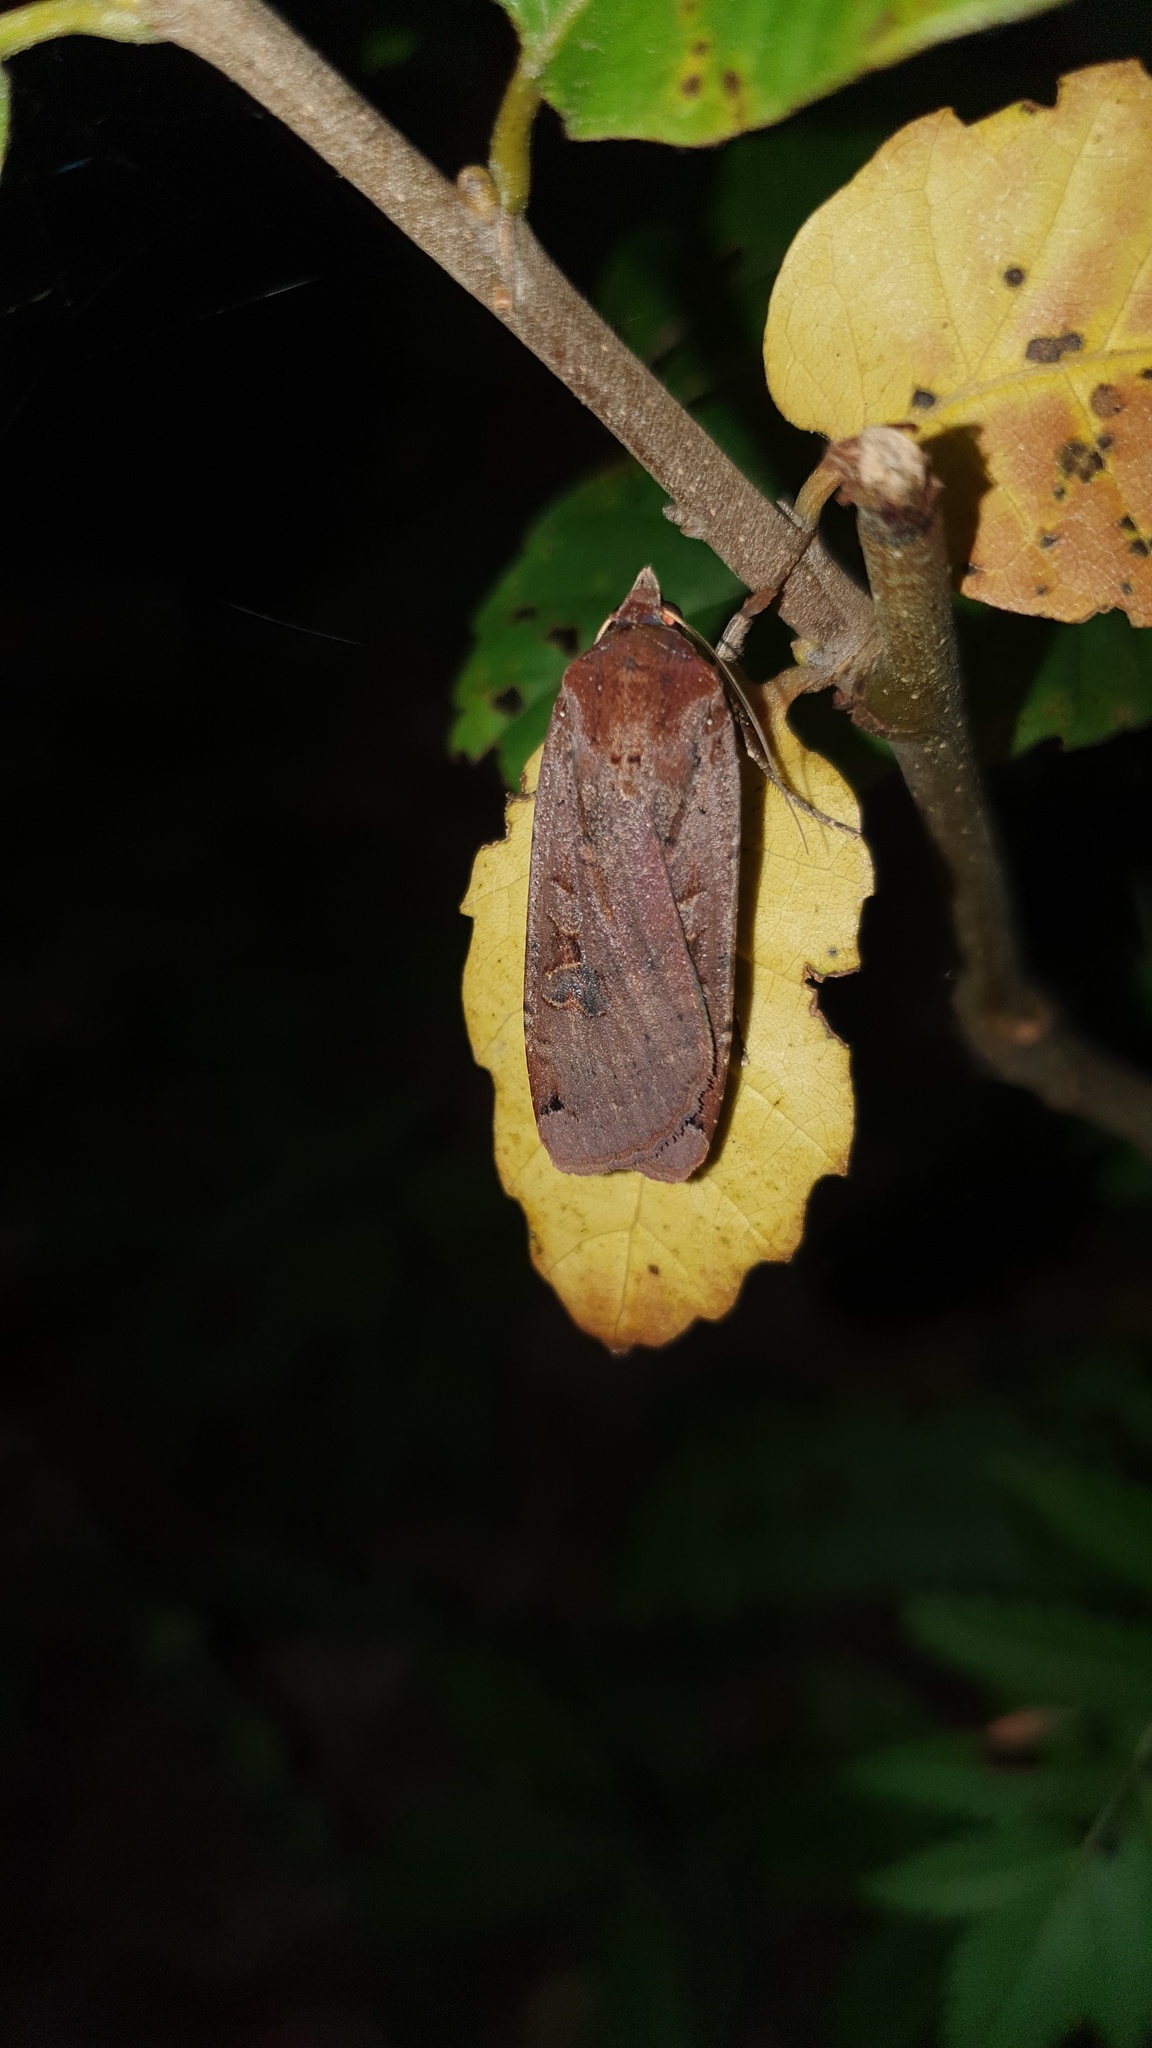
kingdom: Animalia
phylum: Arthropoda
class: Insecta
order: Lepidoptera
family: Noctuidae
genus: Noctua
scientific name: Noctua pronuba
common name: Large yellow underwing
